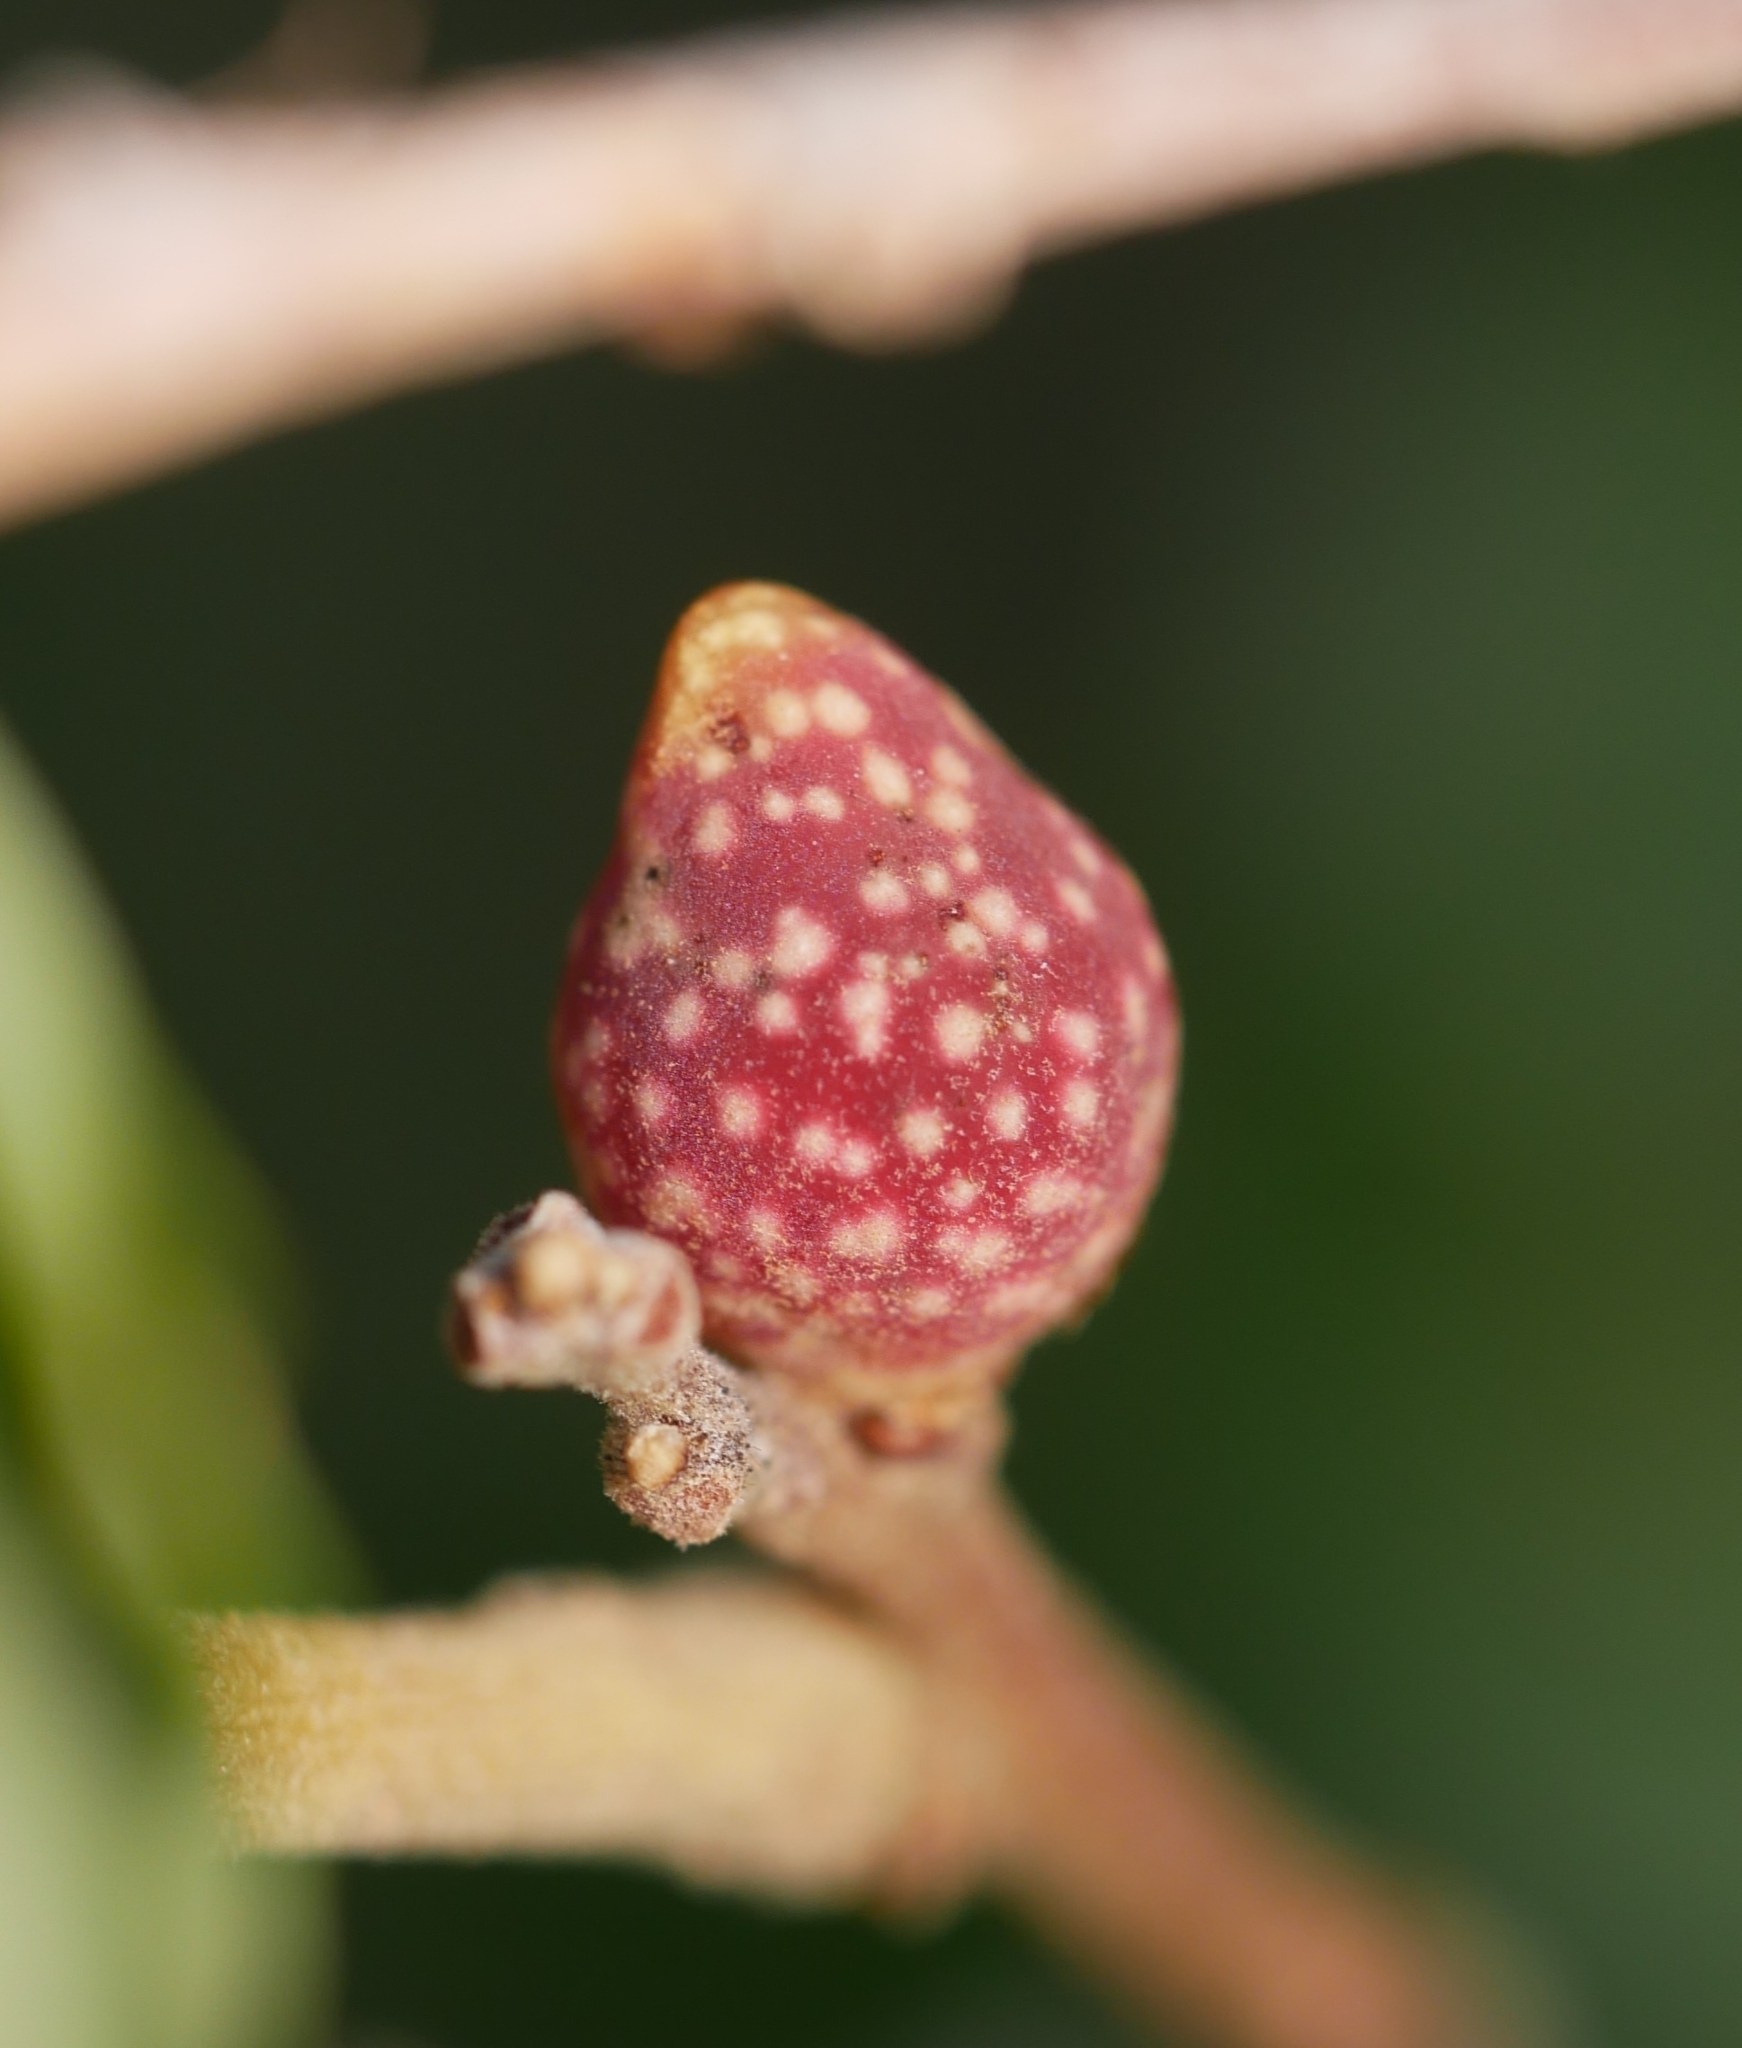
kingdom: Animalia
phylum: Arthropoda
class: Insecta
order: Hymenoptera
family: Cynipidae
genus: Burnettweldia
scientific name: Burnettweldia
